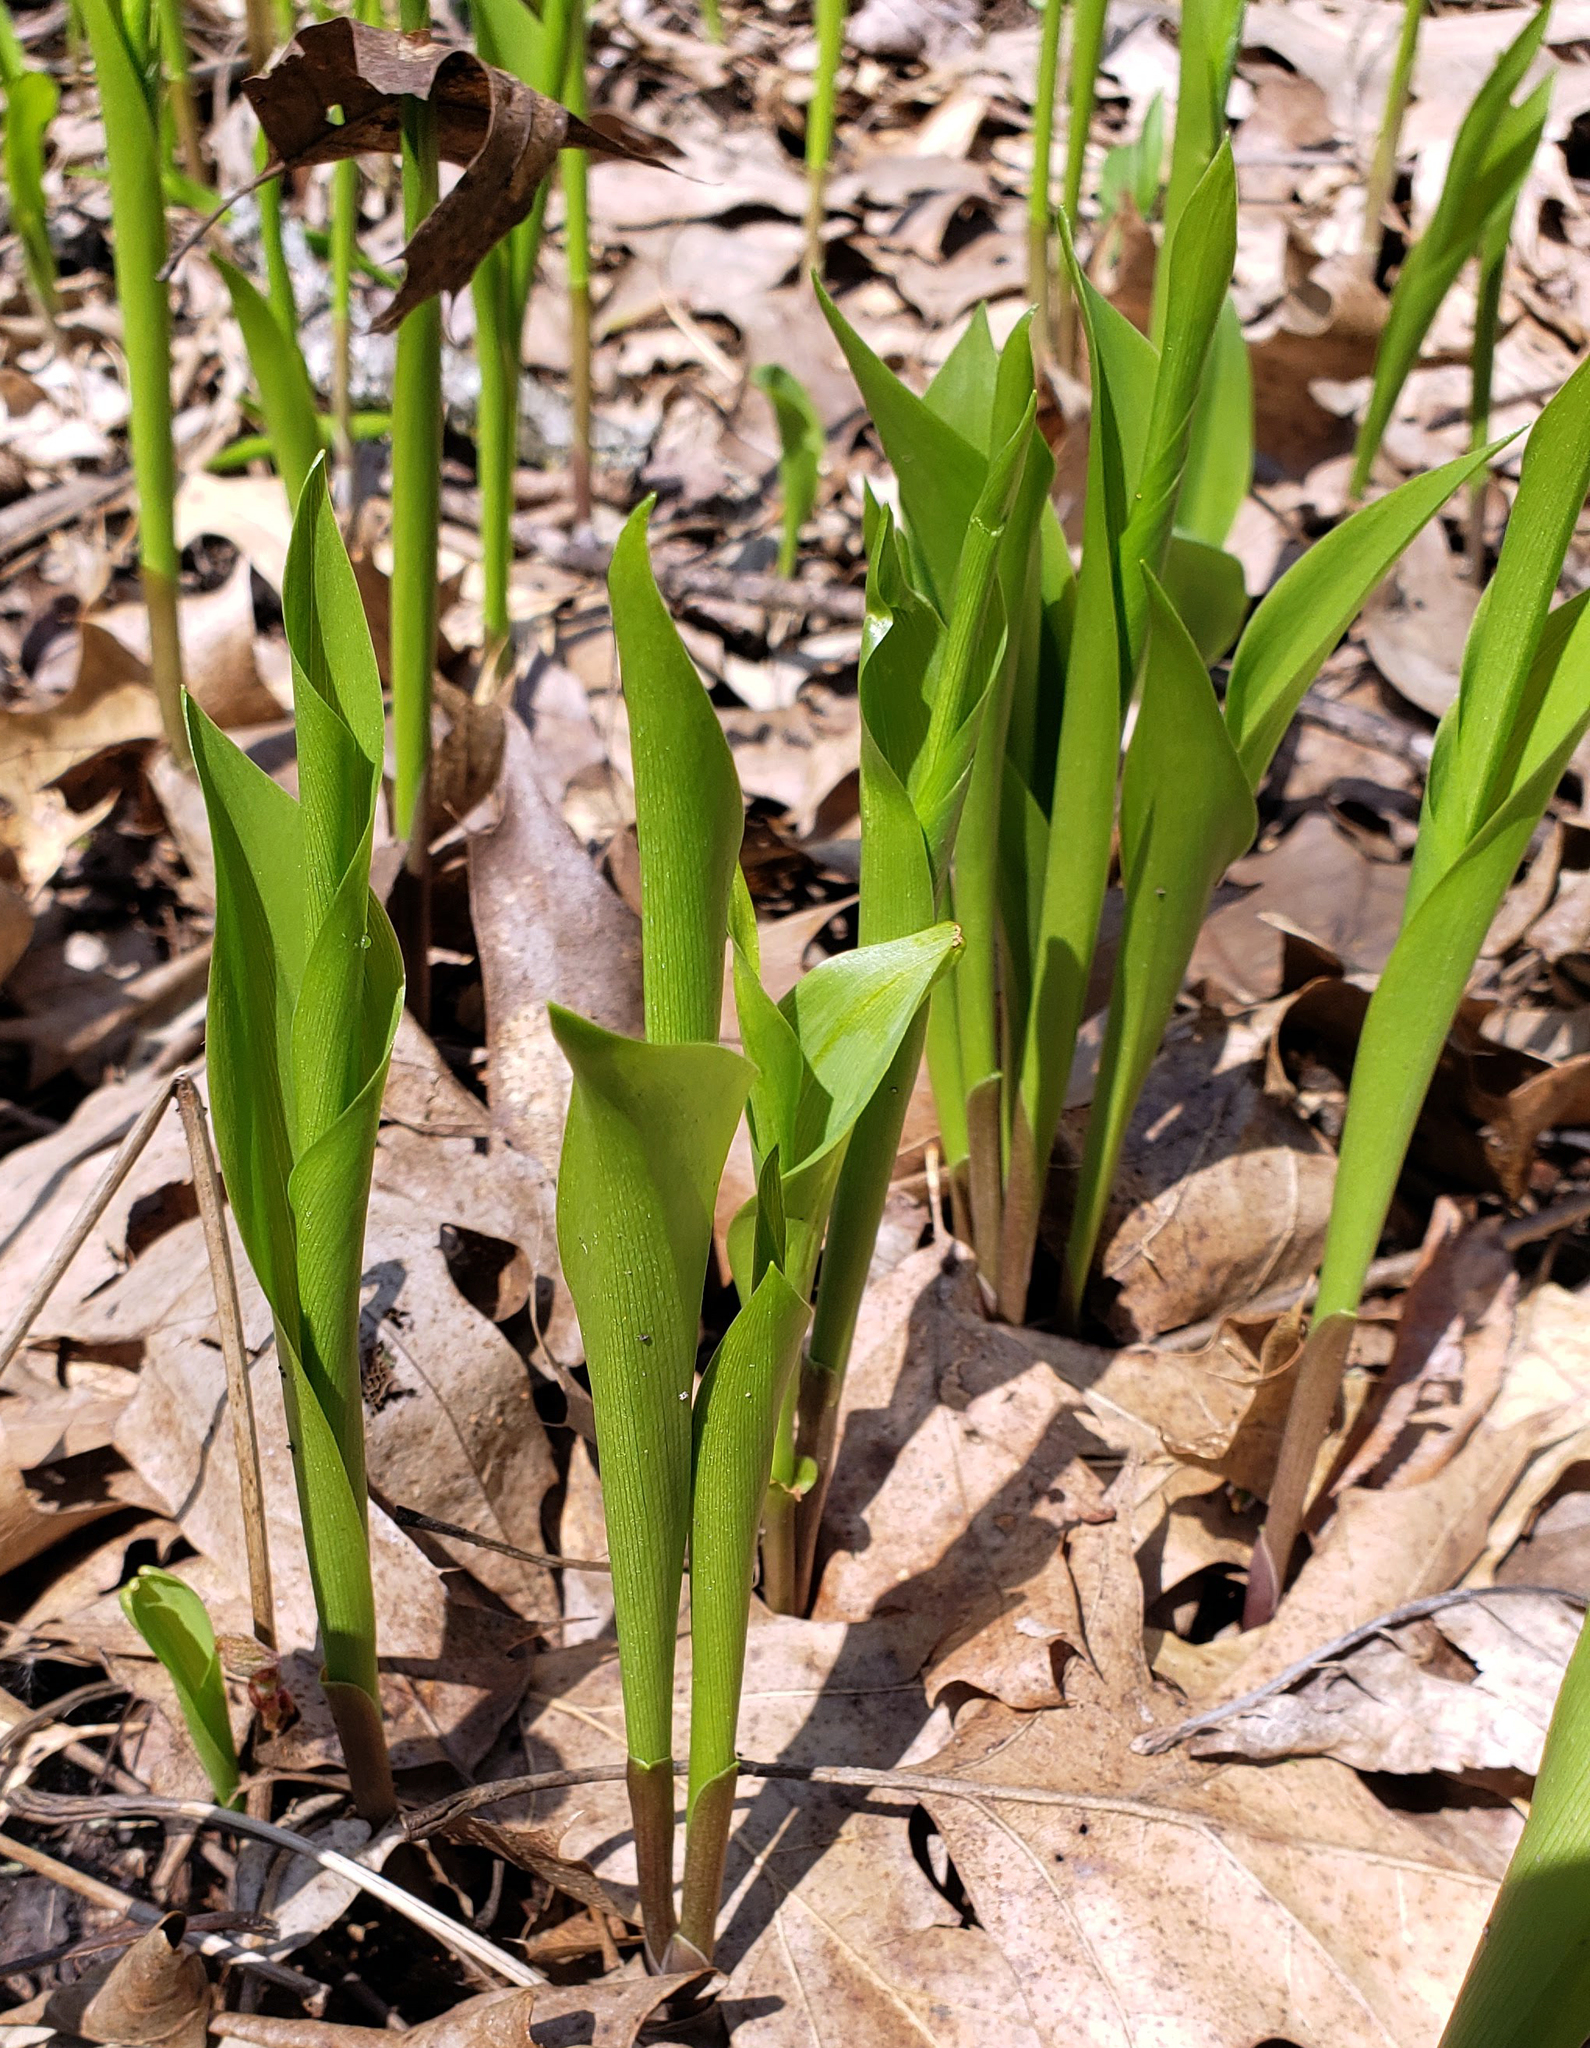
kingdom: Plantae
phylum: Tracheophyta
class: Liliopsida
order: Asparagales
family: Asparagaceae
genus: Convallaria
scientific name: Convallaria majalis
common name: Lily-of-the-valley
